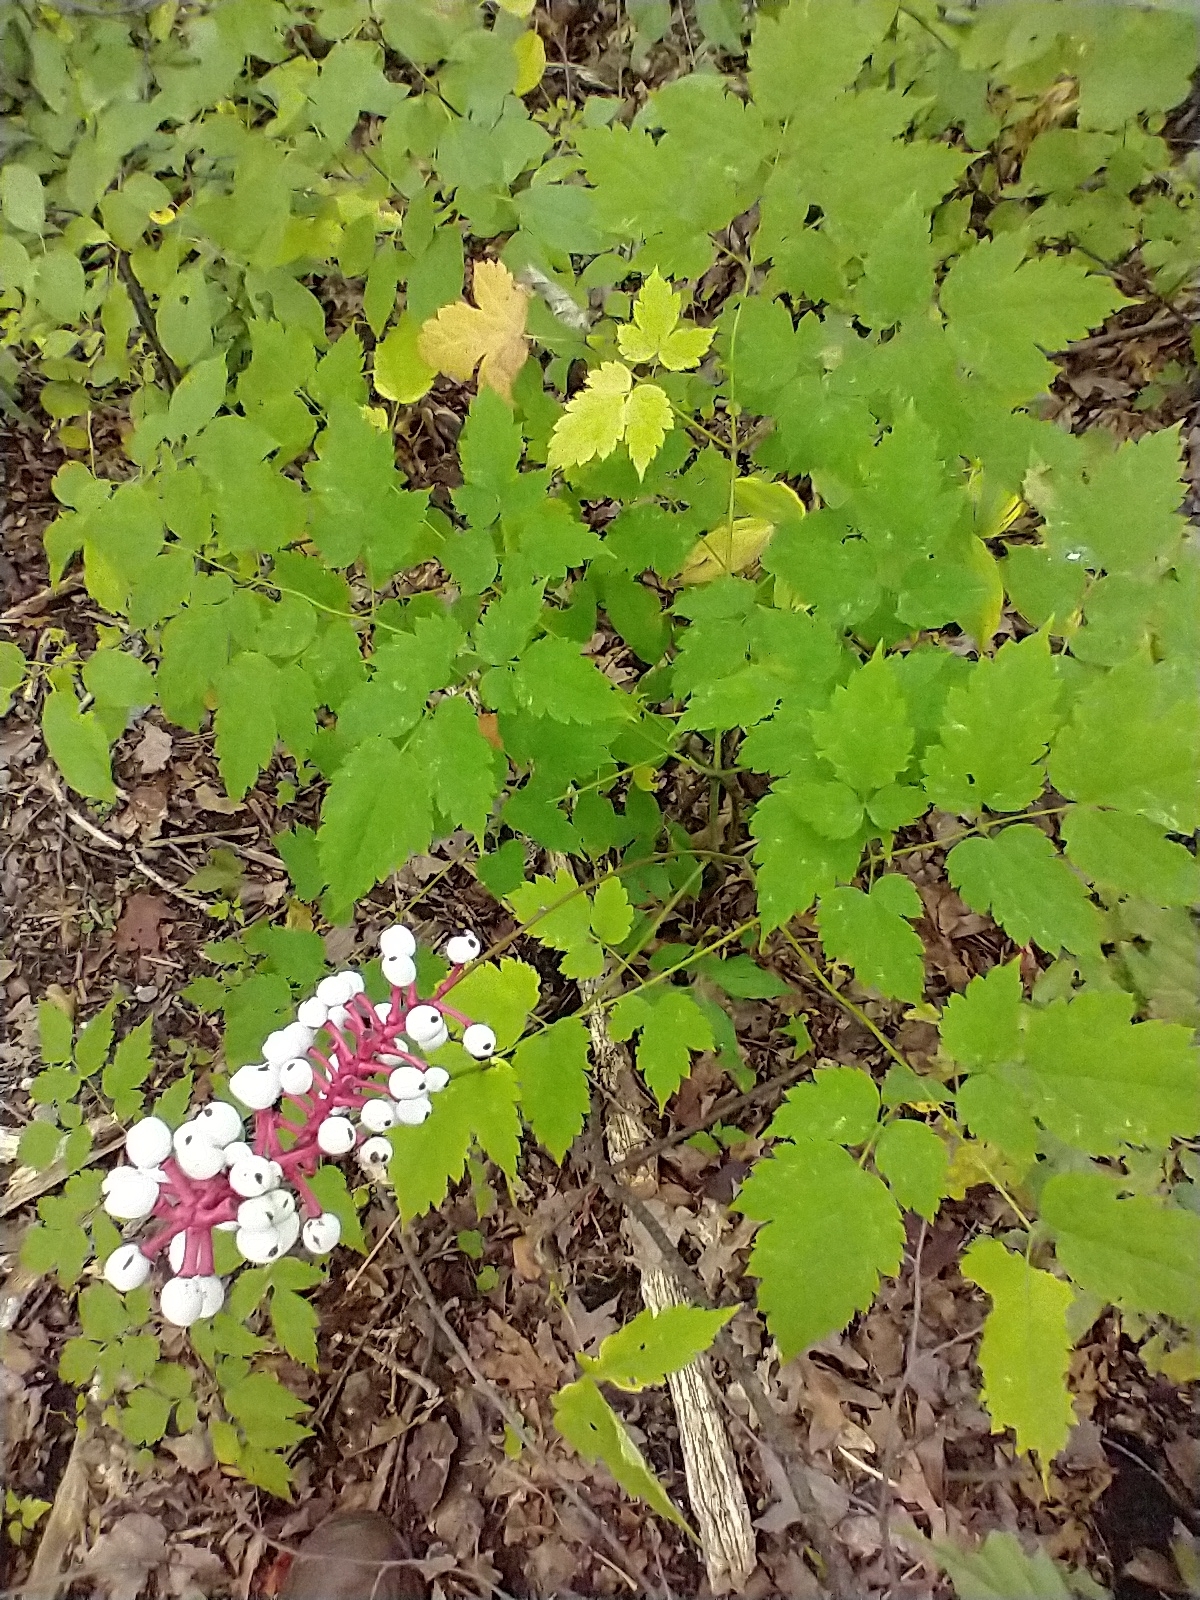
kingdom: Plantae
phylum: Tracheophyta
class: Magnoliopsida
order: Ranunculales
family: Ranunculaceae
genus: Actaea
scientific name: Actaea pachypoda
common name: Doll's-eyes
